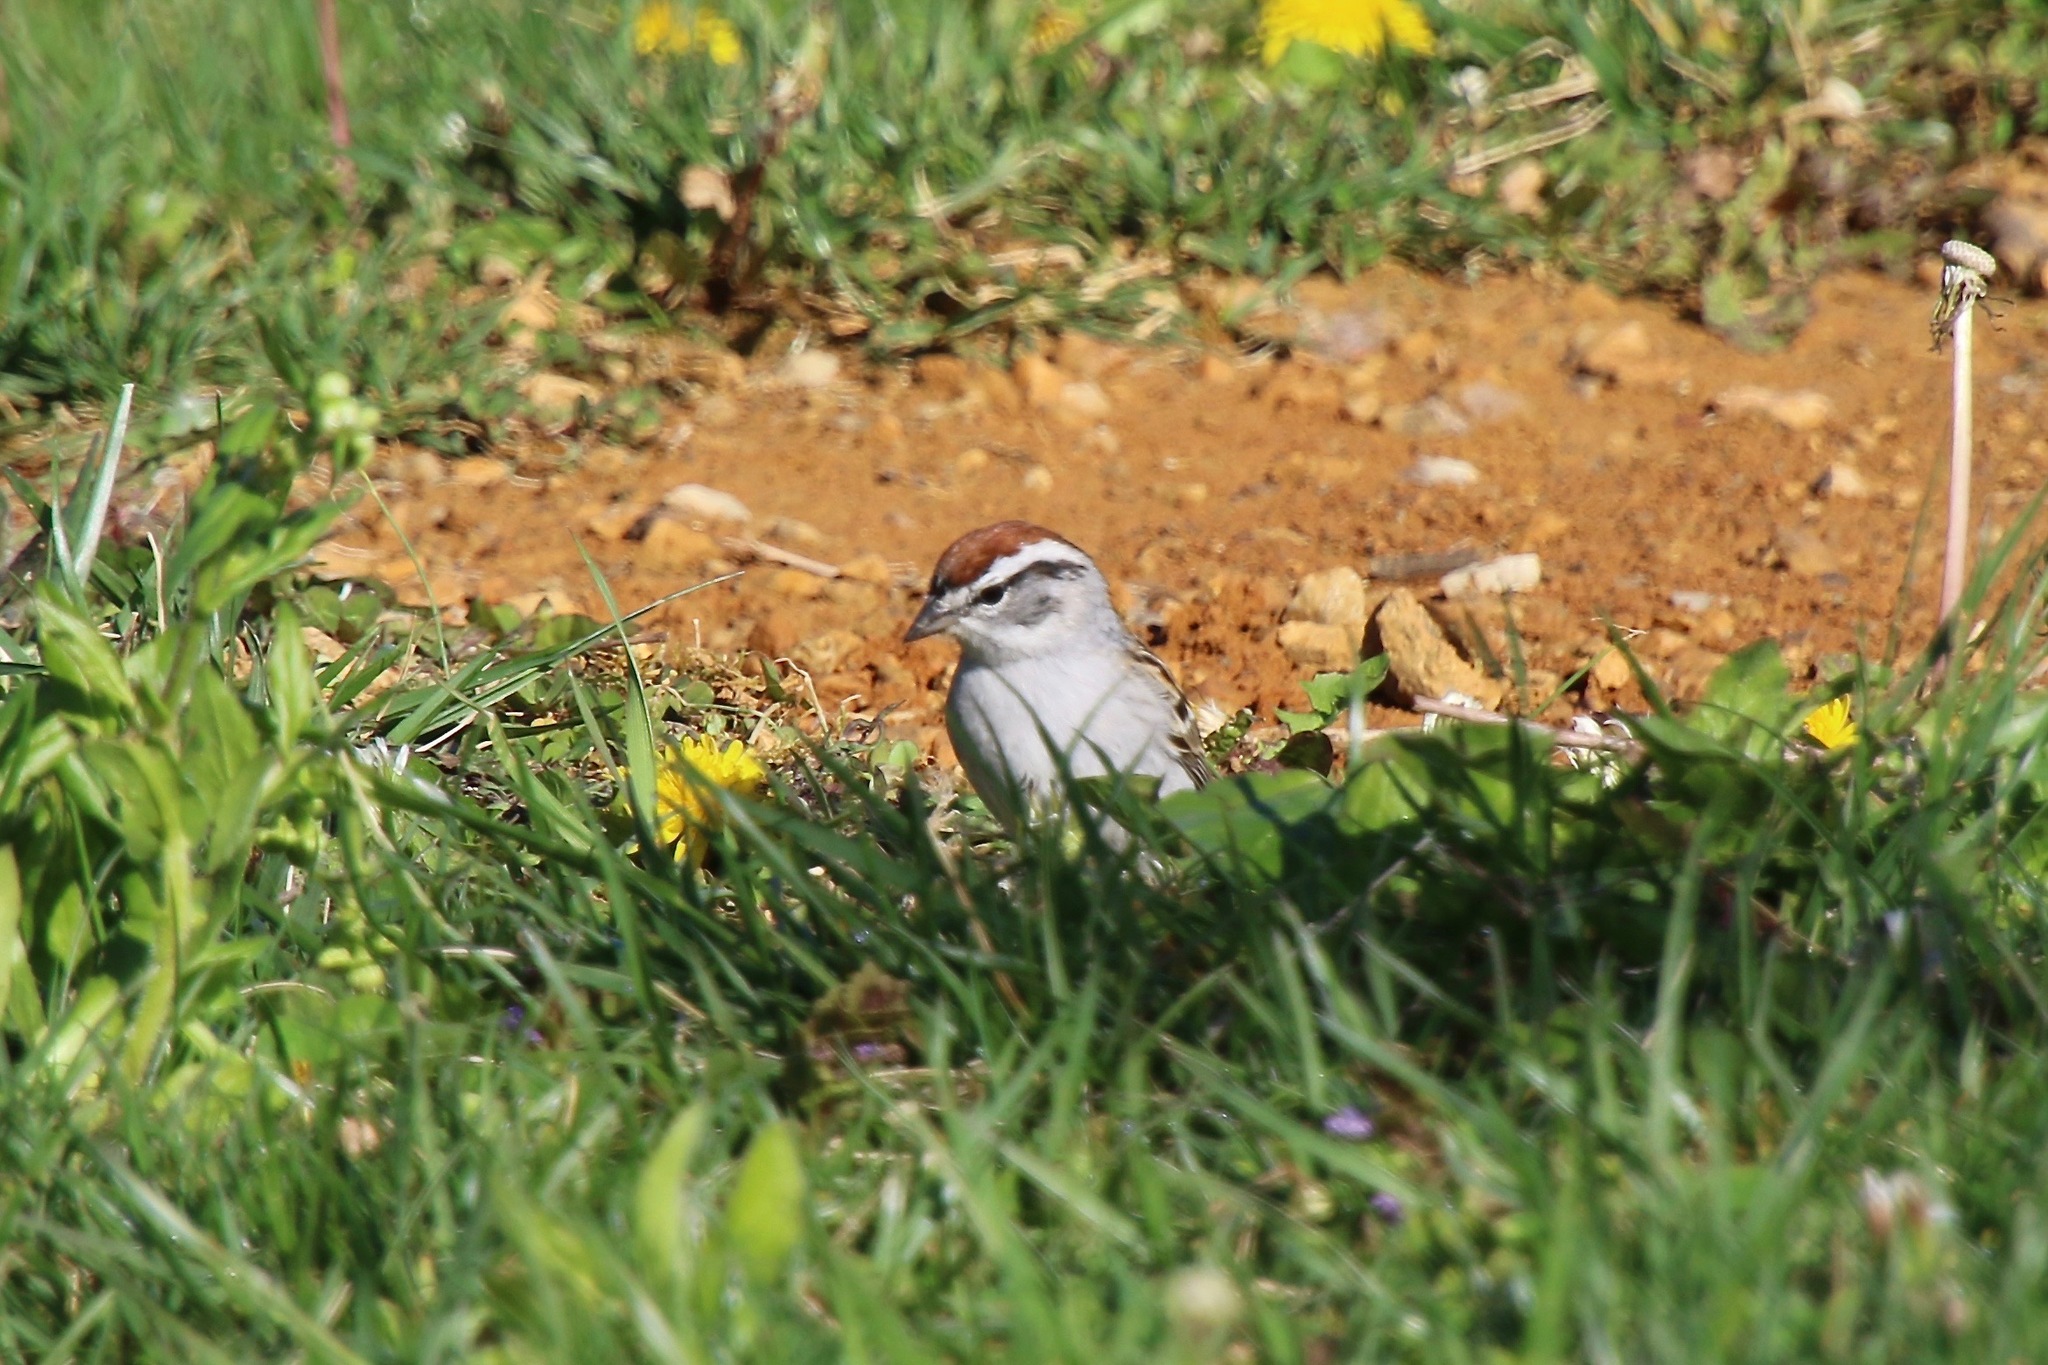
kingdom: Animalia
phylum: Chordata
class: Aves
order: Passeriformes
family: Passerellidae
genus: Spizella
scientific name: Spizella passerina
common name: Chipping sparrow
